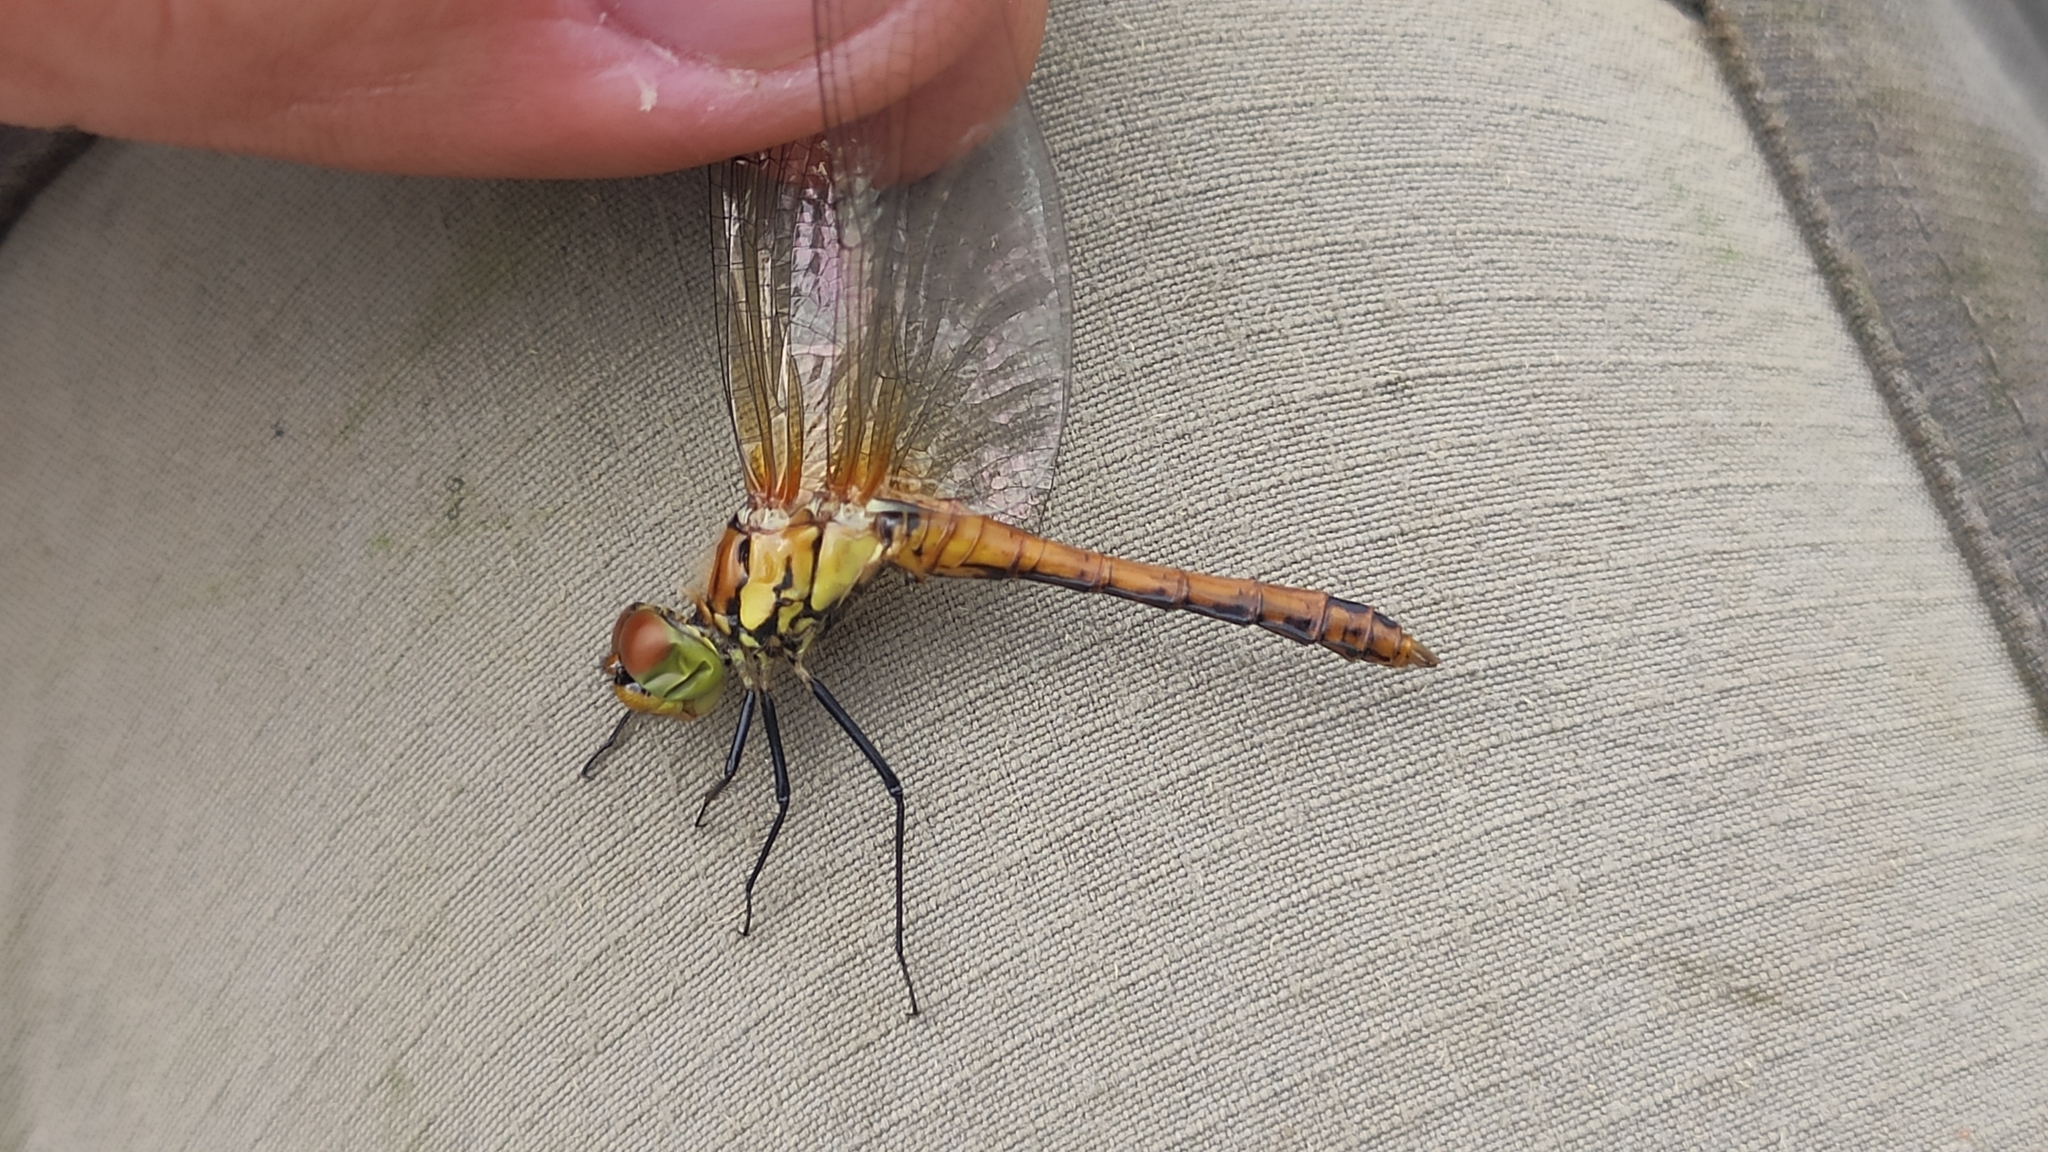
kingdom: Animalia
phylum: Arthropoda
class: Insecta
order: Odonata
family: Libellulidae
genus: Sympetrum
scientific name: Sympetrum sanguineum
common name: Ruddy darter
